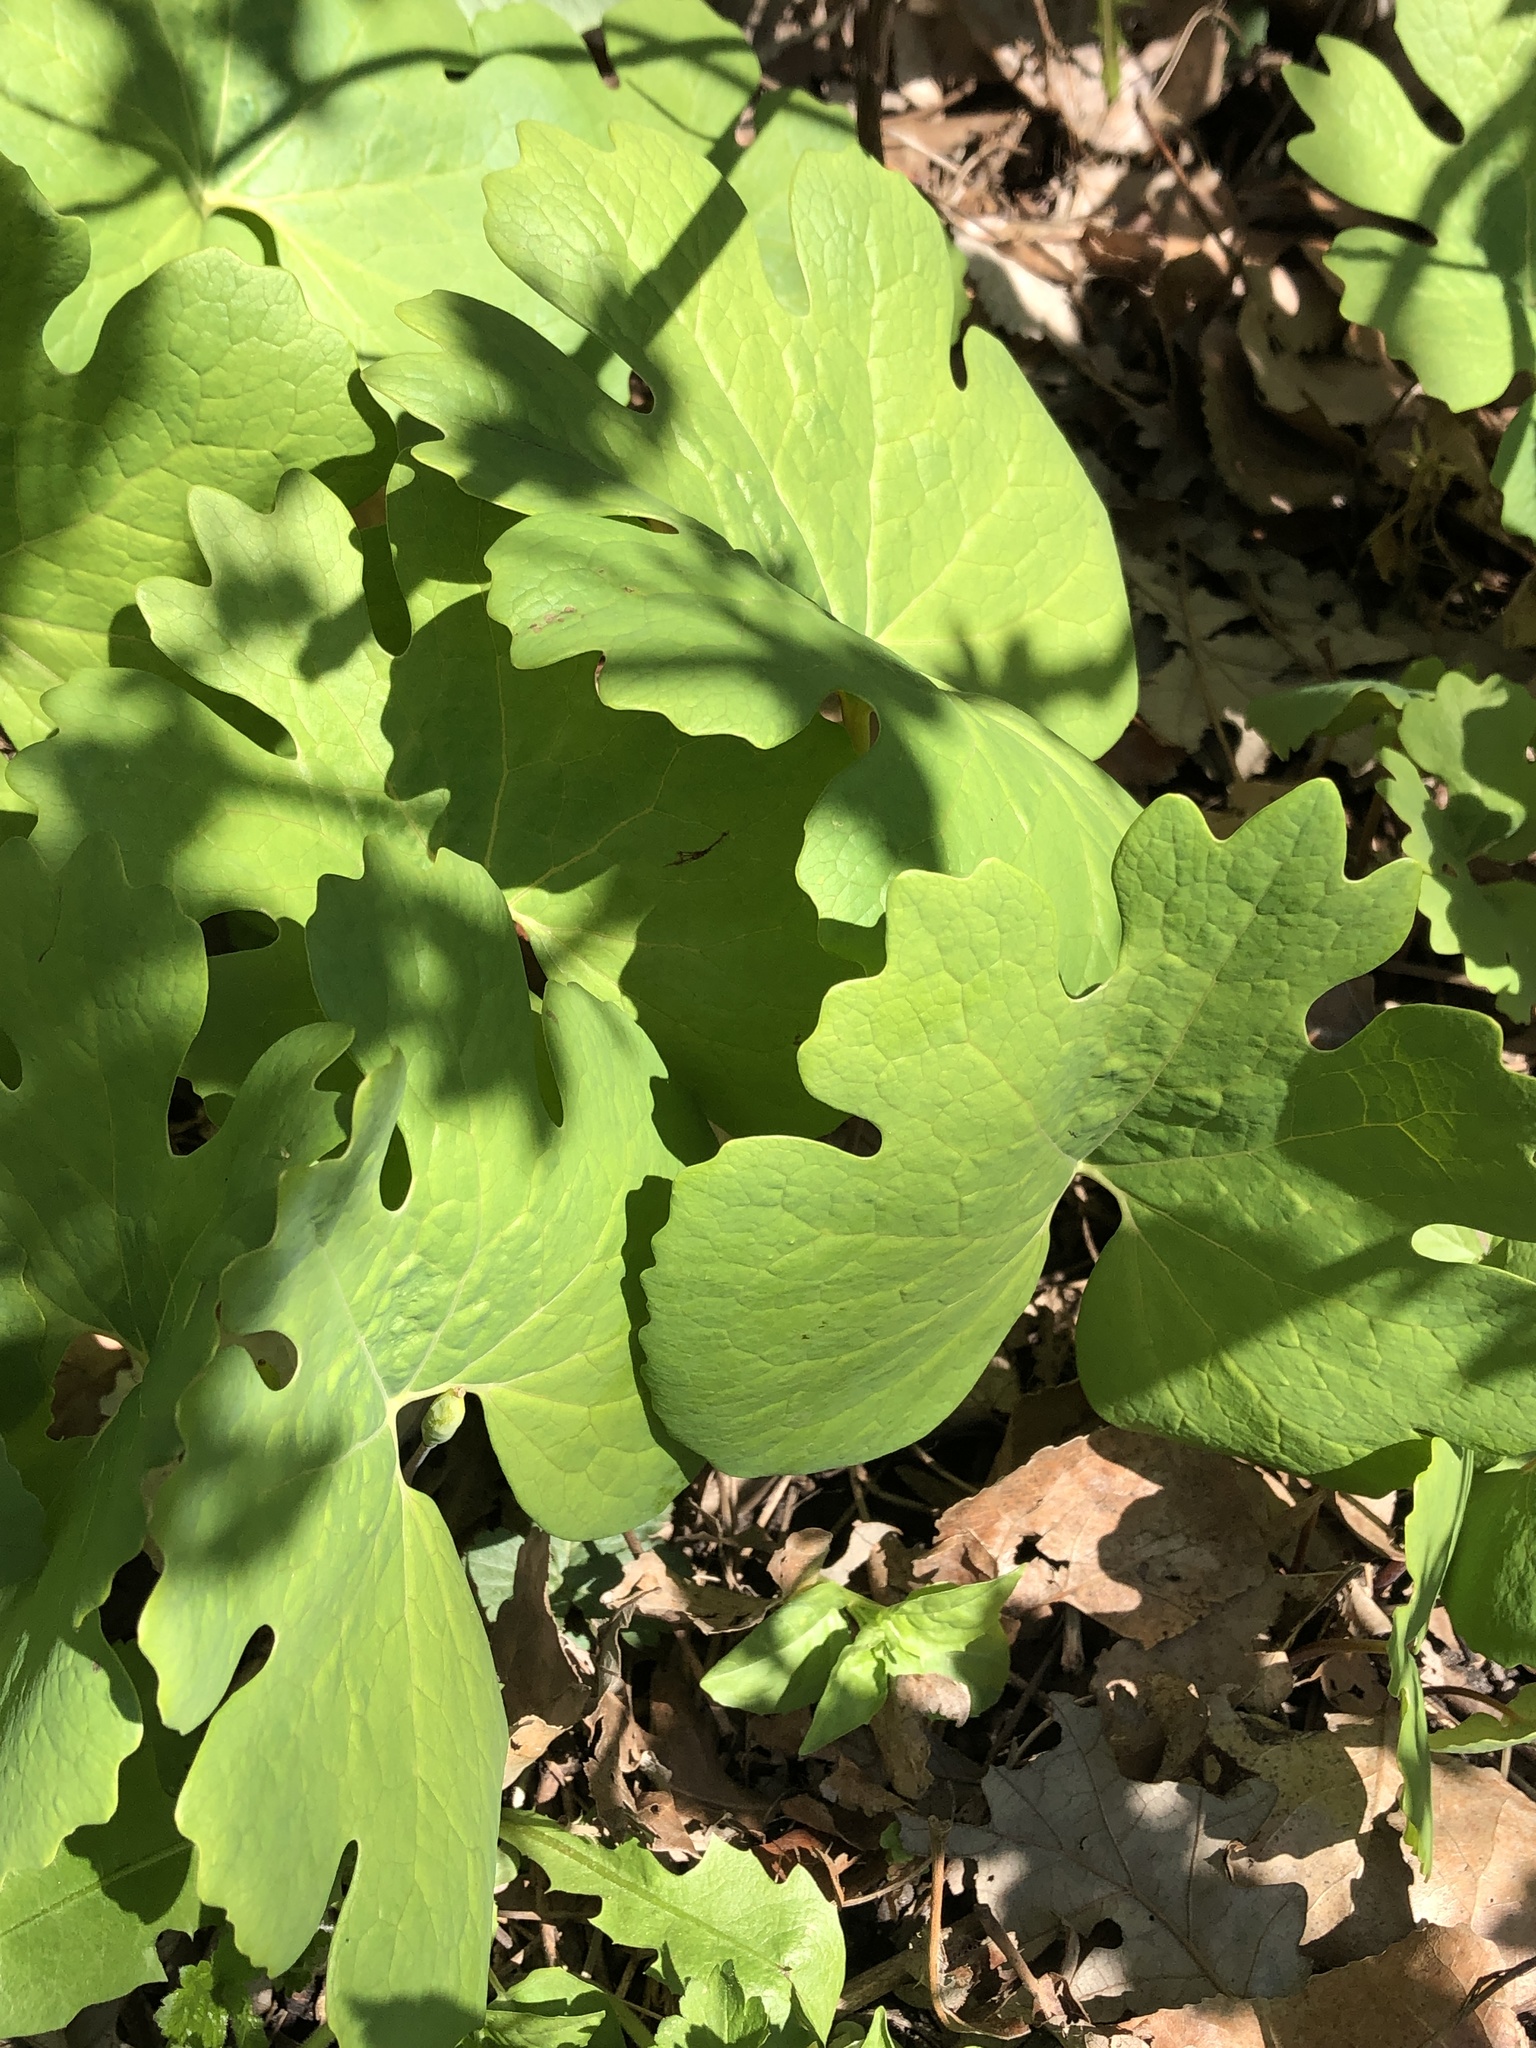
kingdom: Plantae
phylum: Tracheophyta
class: Magnoliopsida
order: Ranunculales
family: Papaveraceae
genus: Sanguinaria
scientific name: Sanguinaria canadensis
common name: Bloodroot
